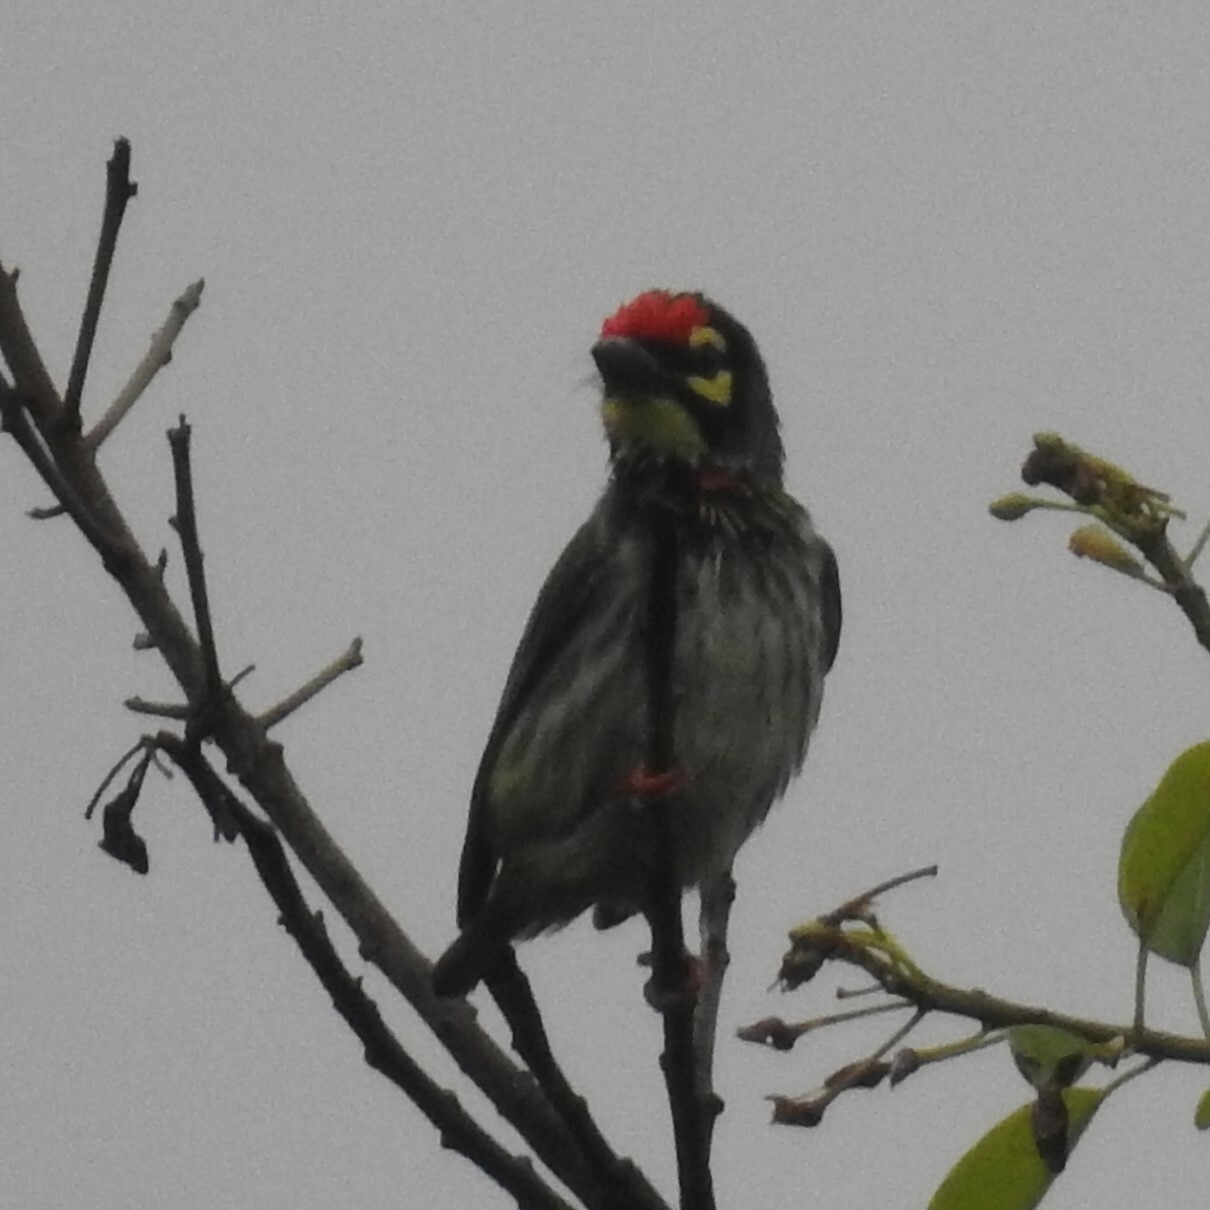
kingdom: Animalia
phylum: Chordata
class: Aves
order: Piciformes
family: Megalaimidae
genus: Psilopogon
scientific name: Psilopogon haemacephalus
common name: Coppersmith barbet
